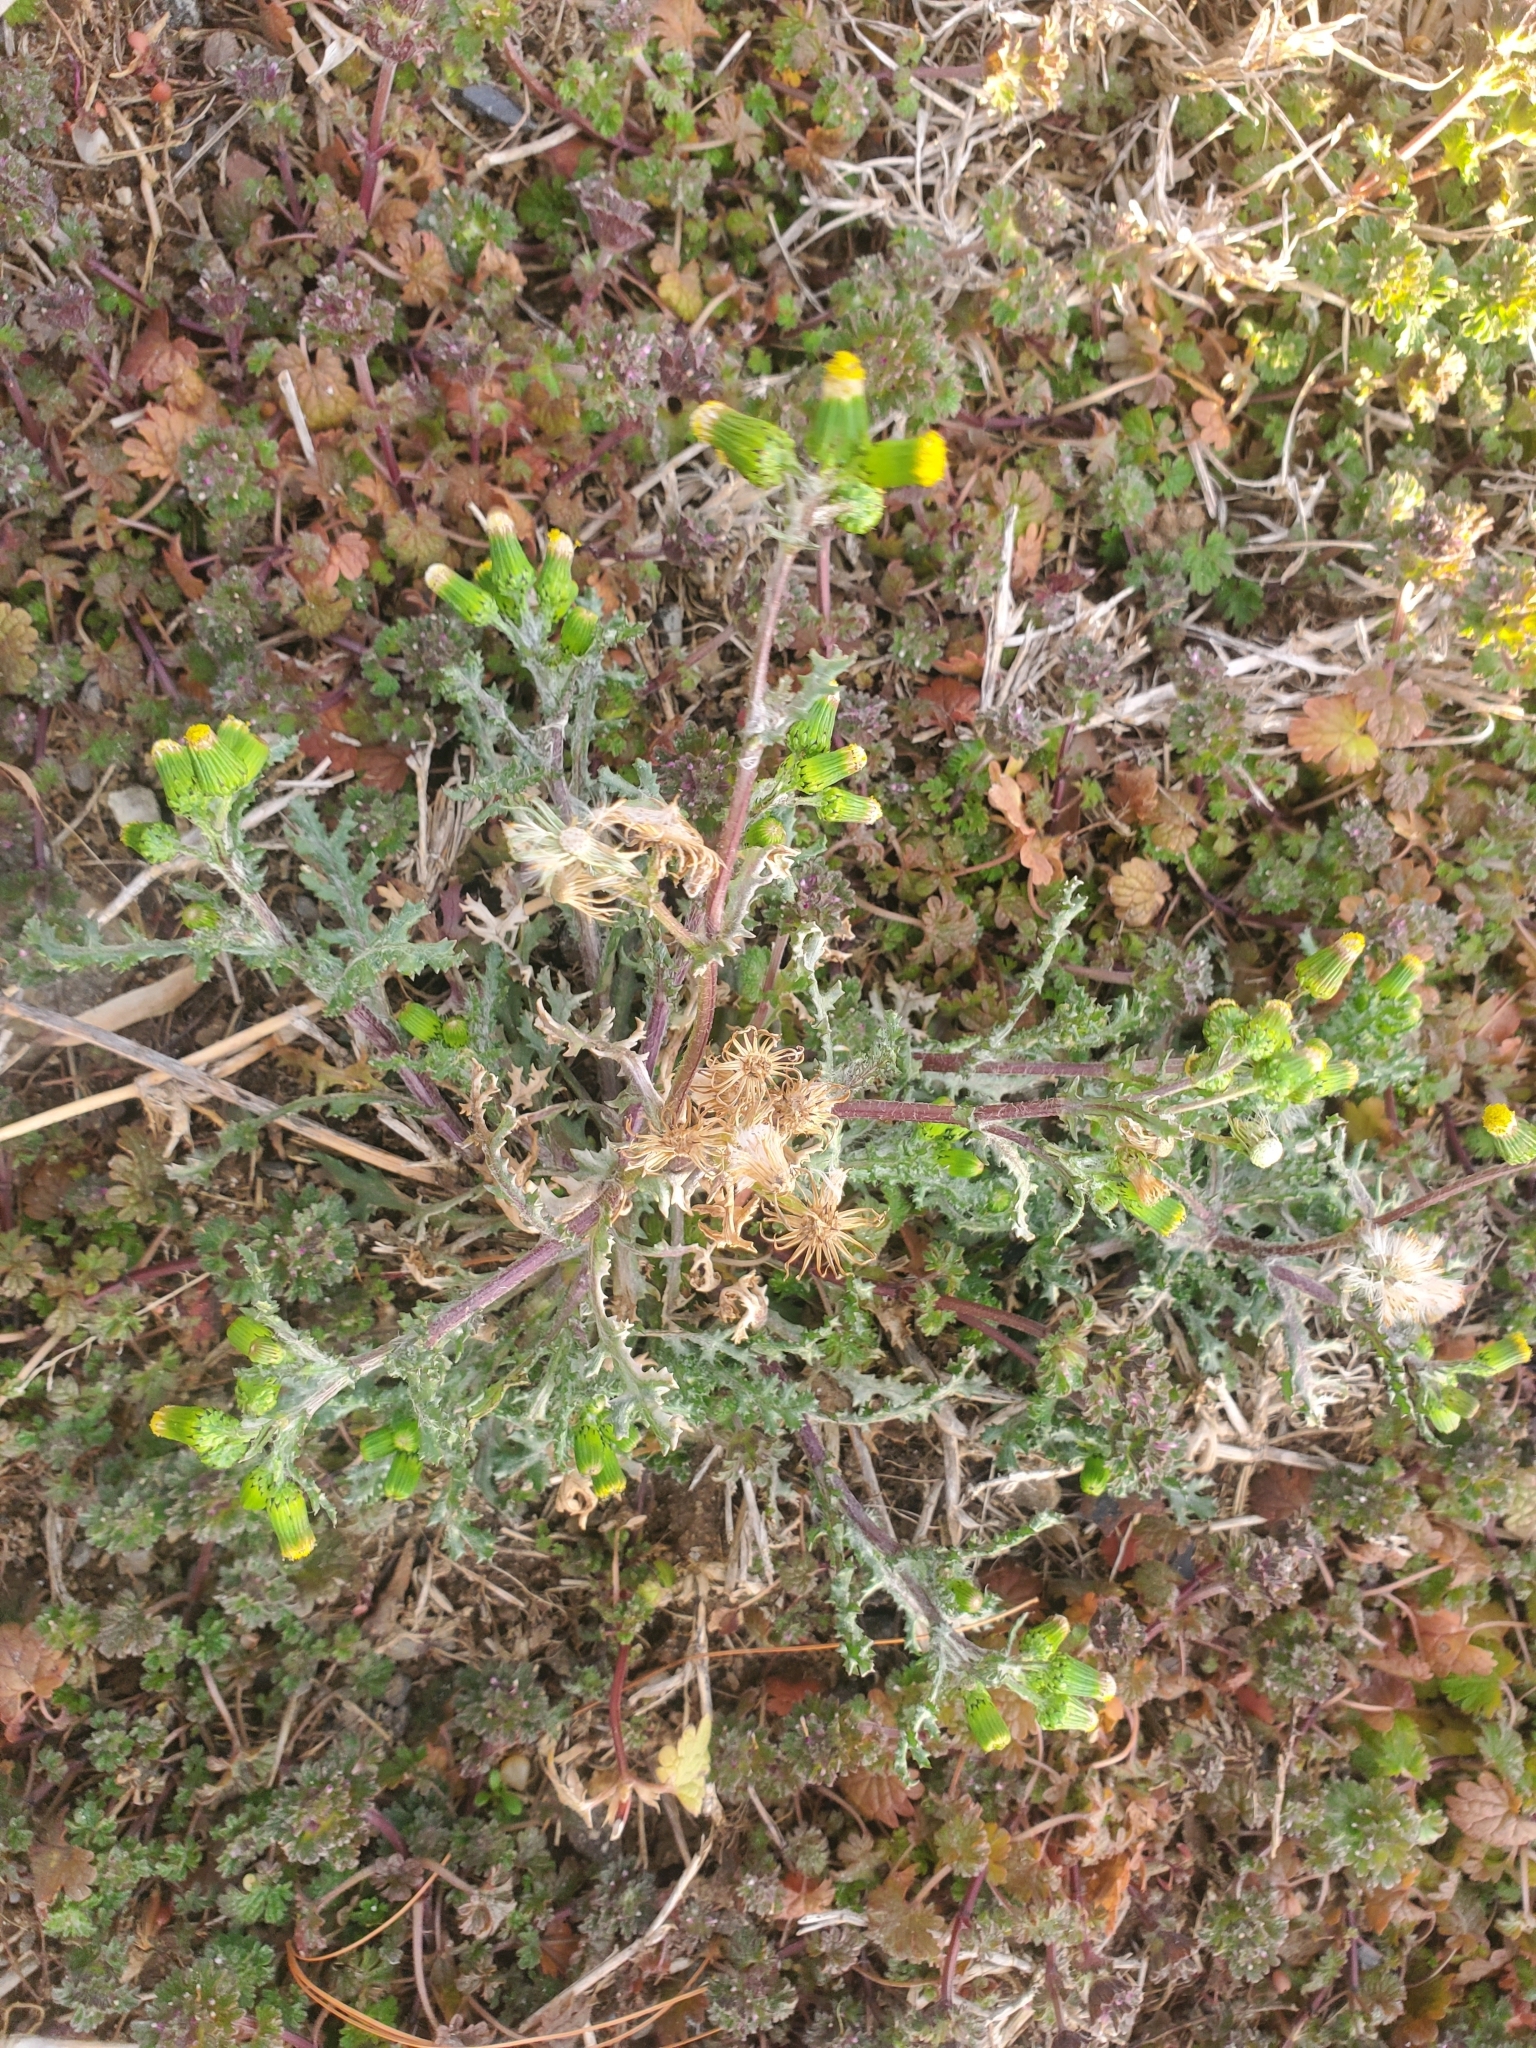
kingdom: Plantae
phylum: Tracheophyta
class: Magnoliopsida
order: Asterales
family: Asteraceae
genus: Senecio
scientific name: Senecio vulgaris
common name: Old-man-in-the-spring
